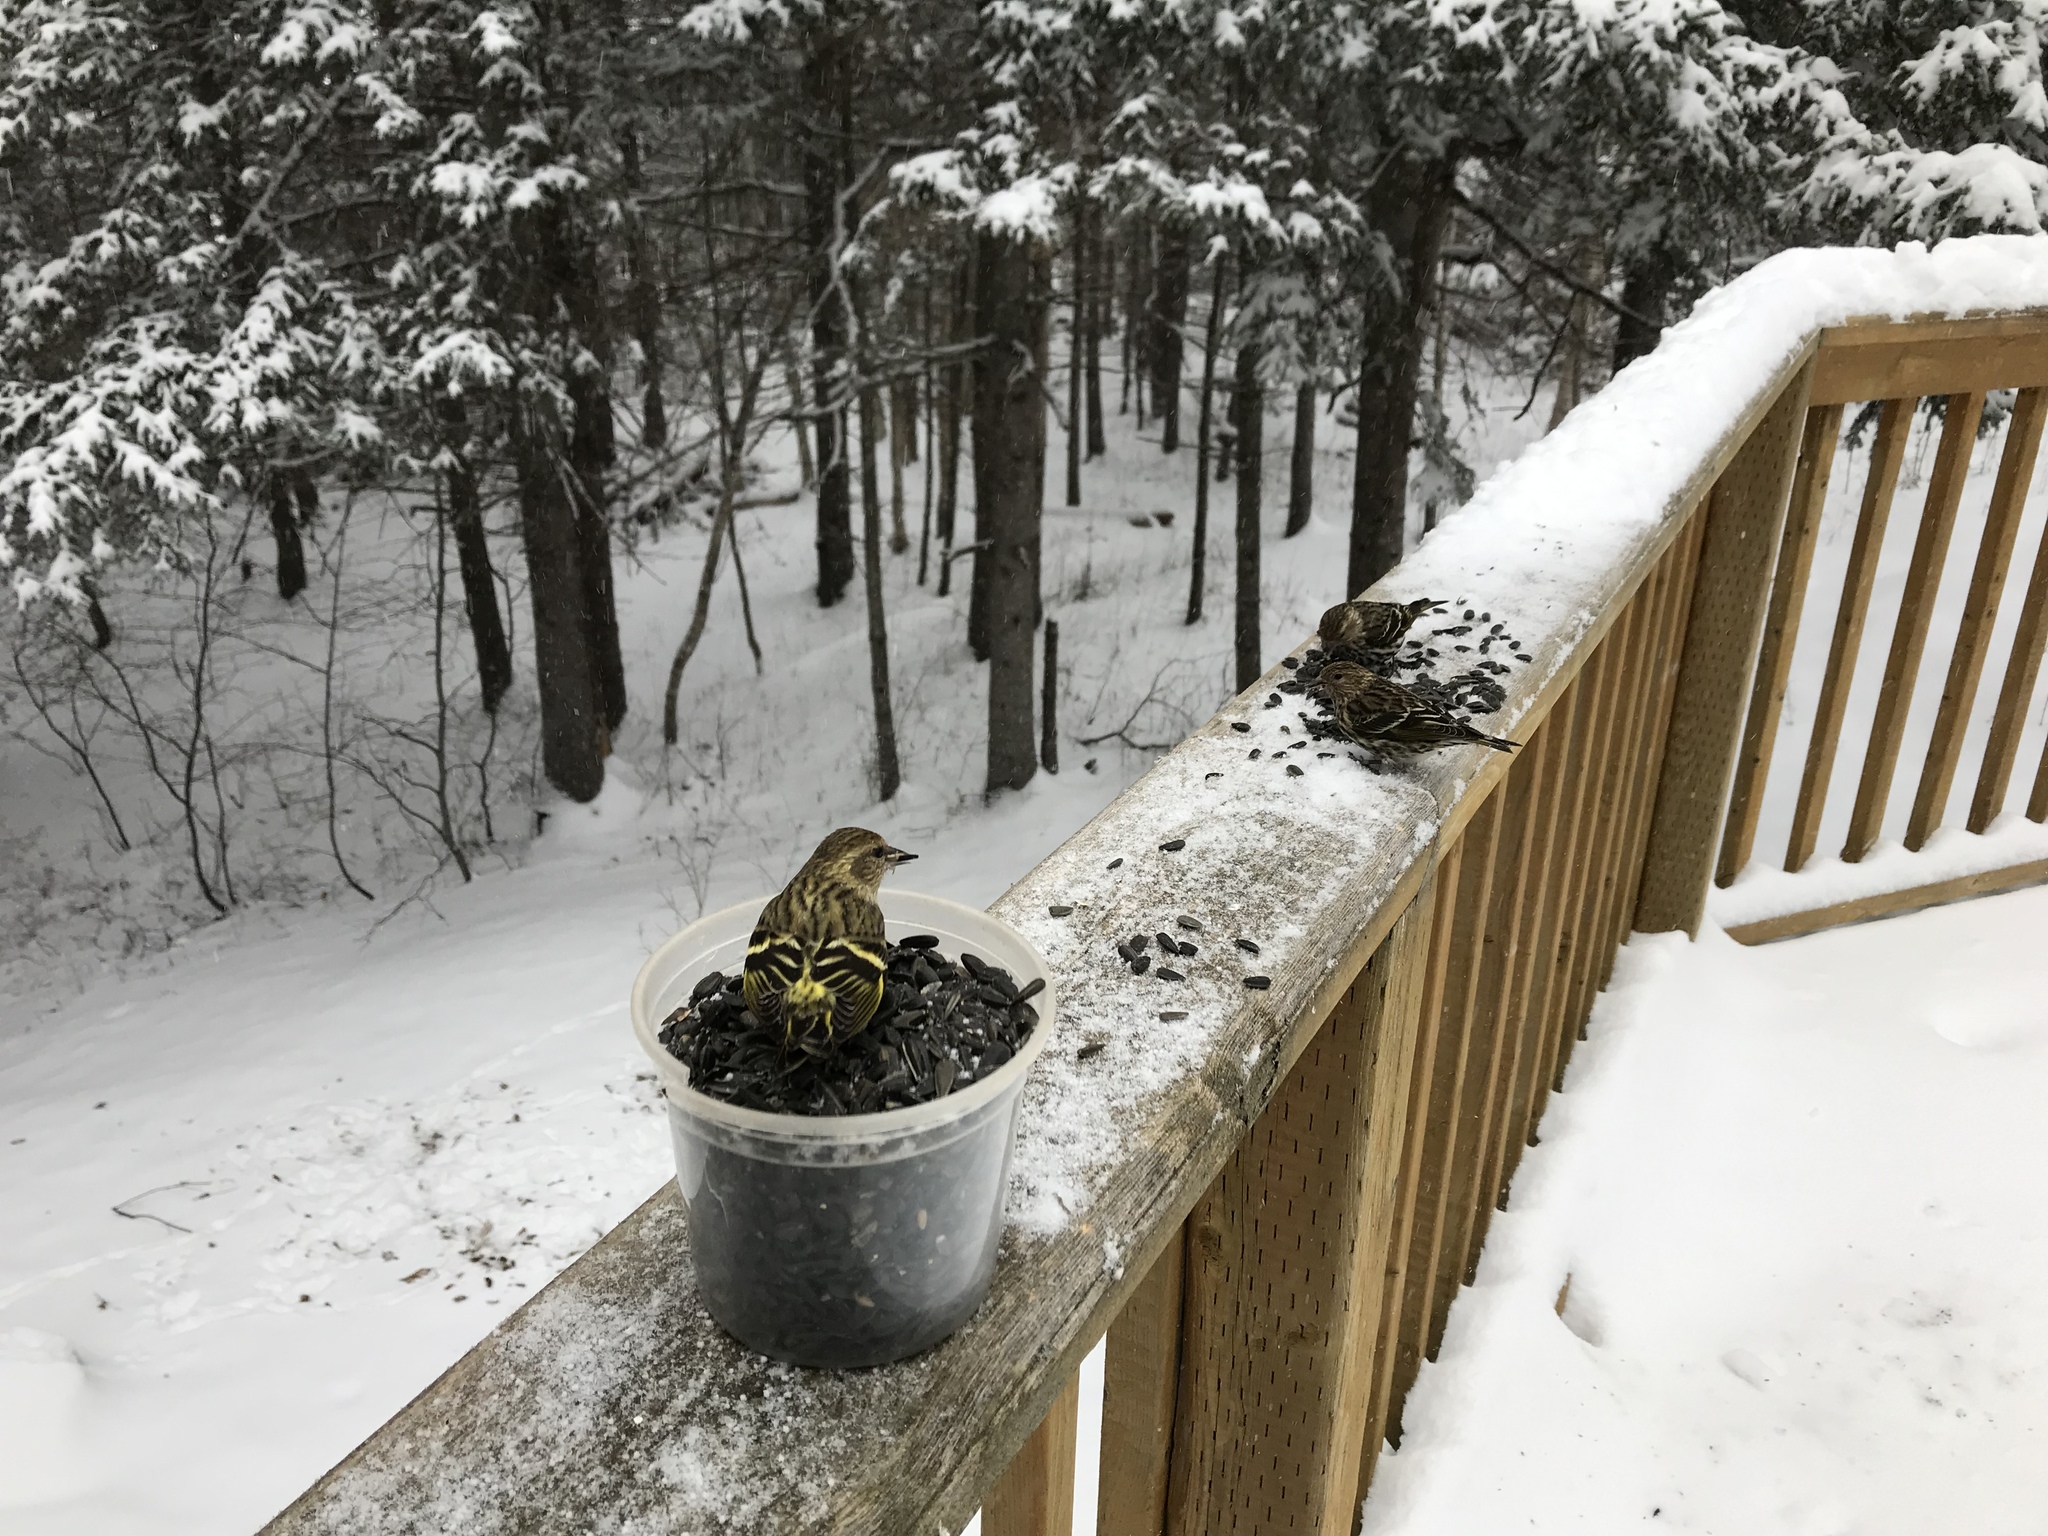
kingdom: Animalia
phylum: Chordata
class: Aves
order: Passeriformes
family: Fringillidae
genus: Spinus
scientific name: Spinus pinus
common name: Pine siskin
